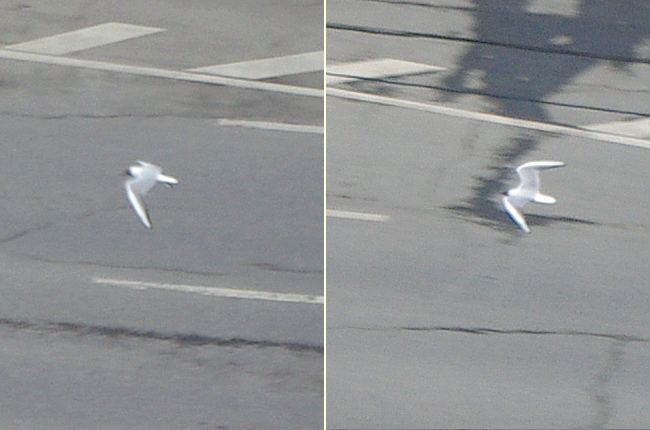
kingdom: Animalia
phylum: Chordata
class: Aves
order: Charadriiformes
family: Laridae
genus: Chroicocephalus
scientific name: Chroicocephalus ridibundus
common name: Black-headed gull
